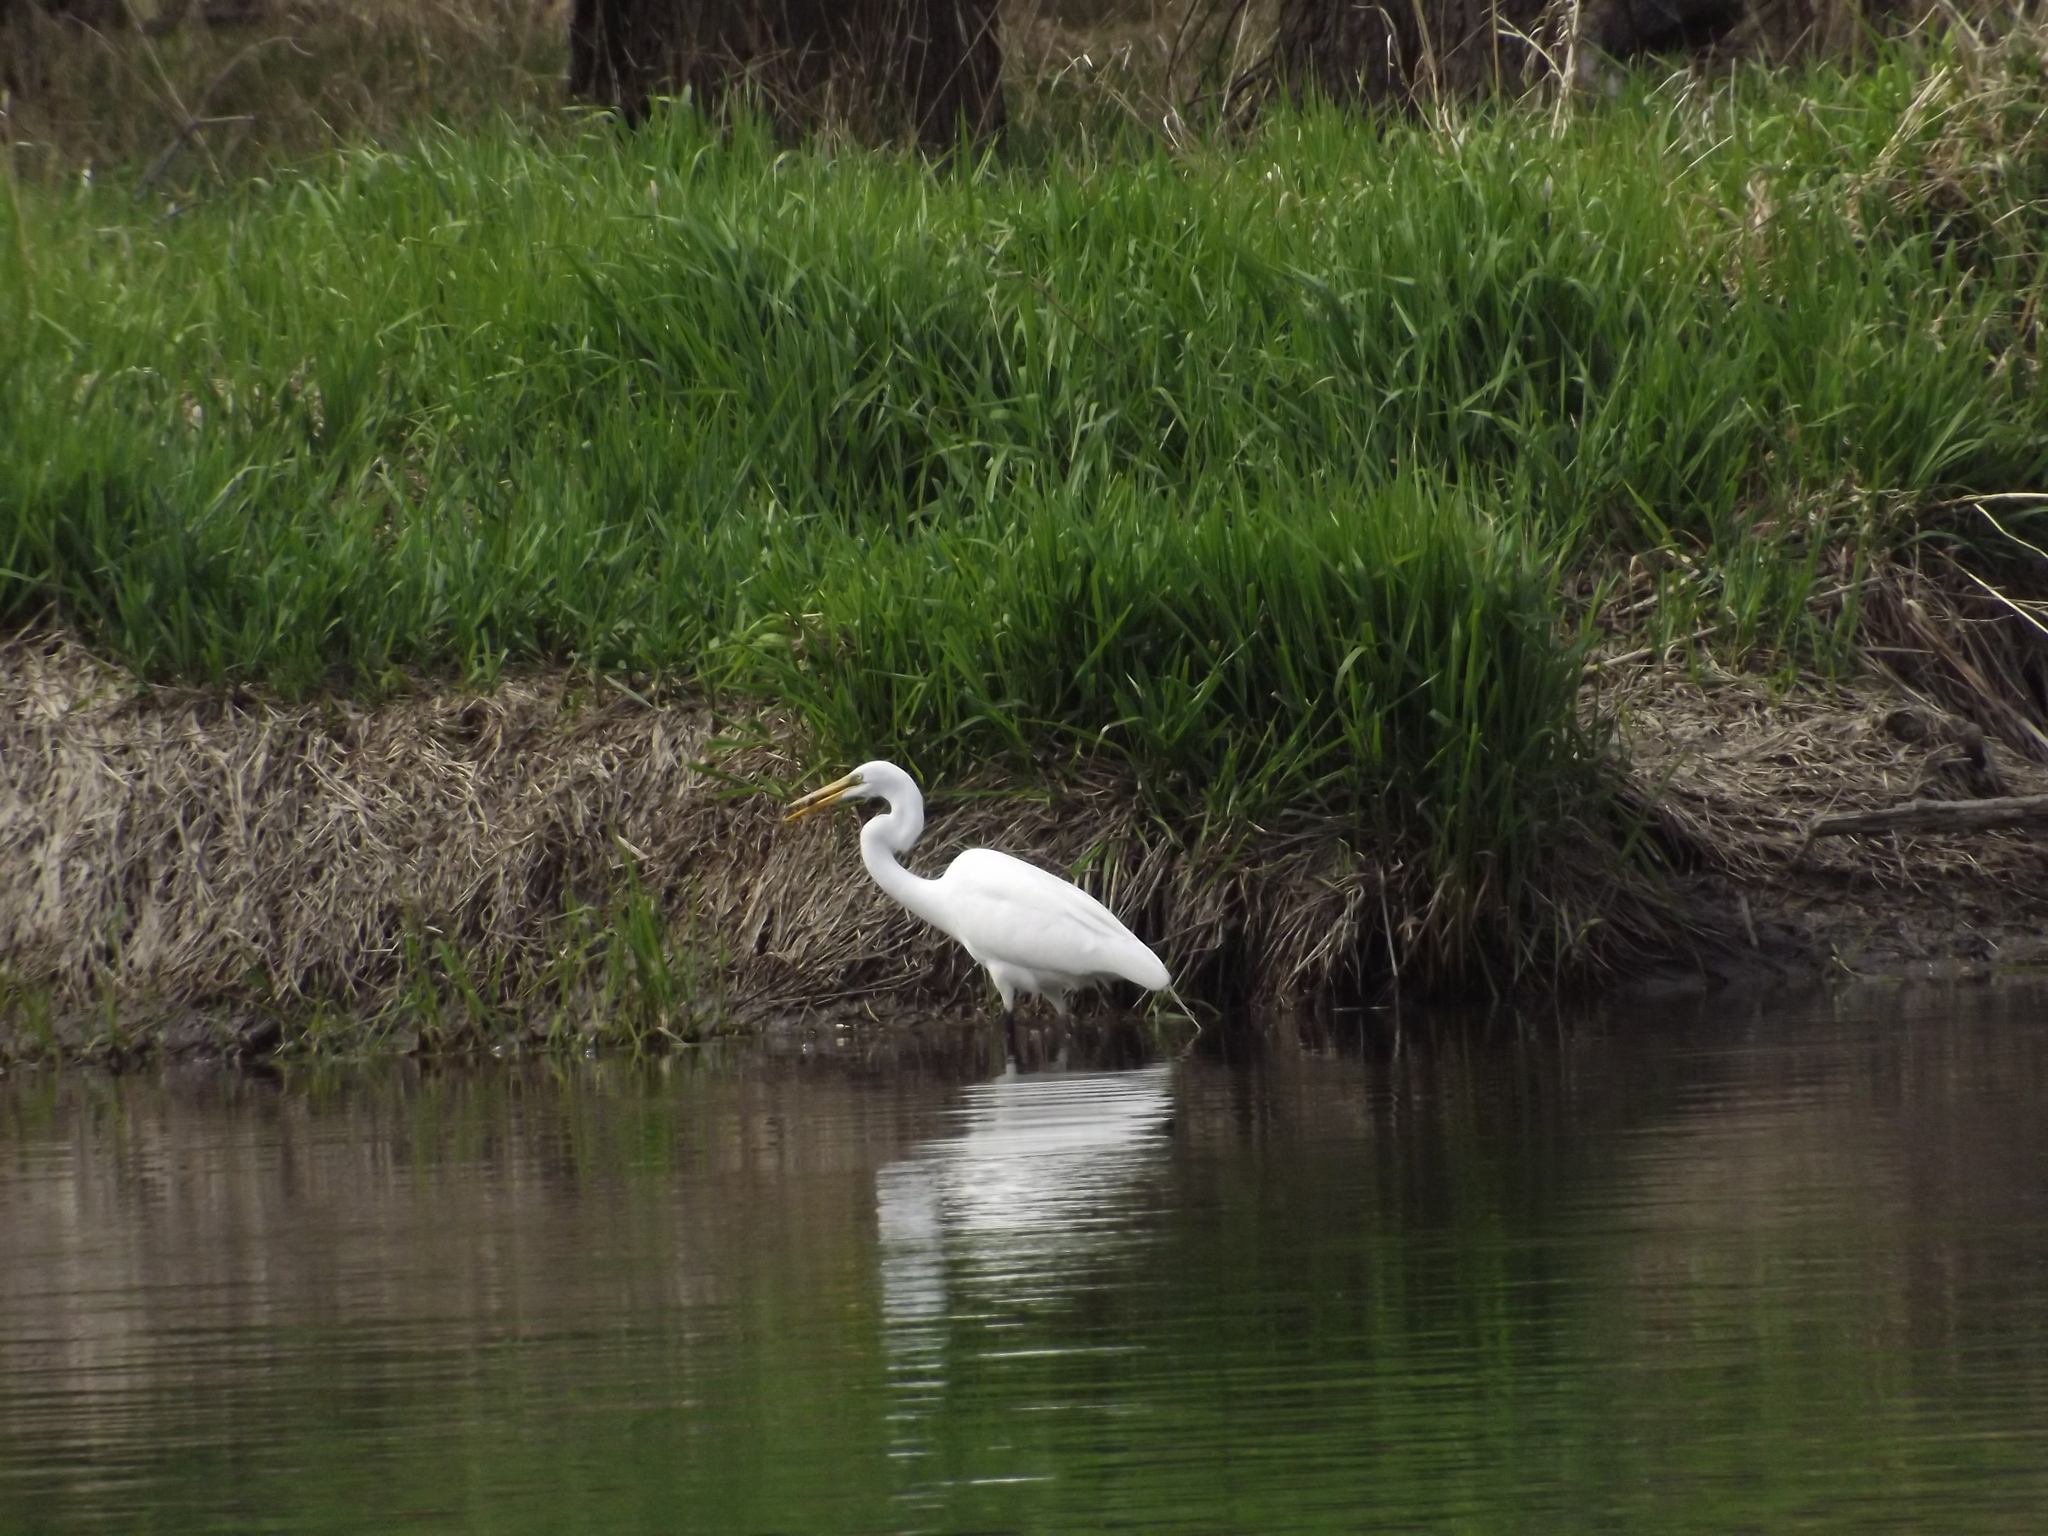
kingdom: Animalia
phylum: Chordata
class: Aves
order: Pelecaniformes
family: Ardeidae
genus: Ardea
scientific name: Ardea alba
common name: Great egret
